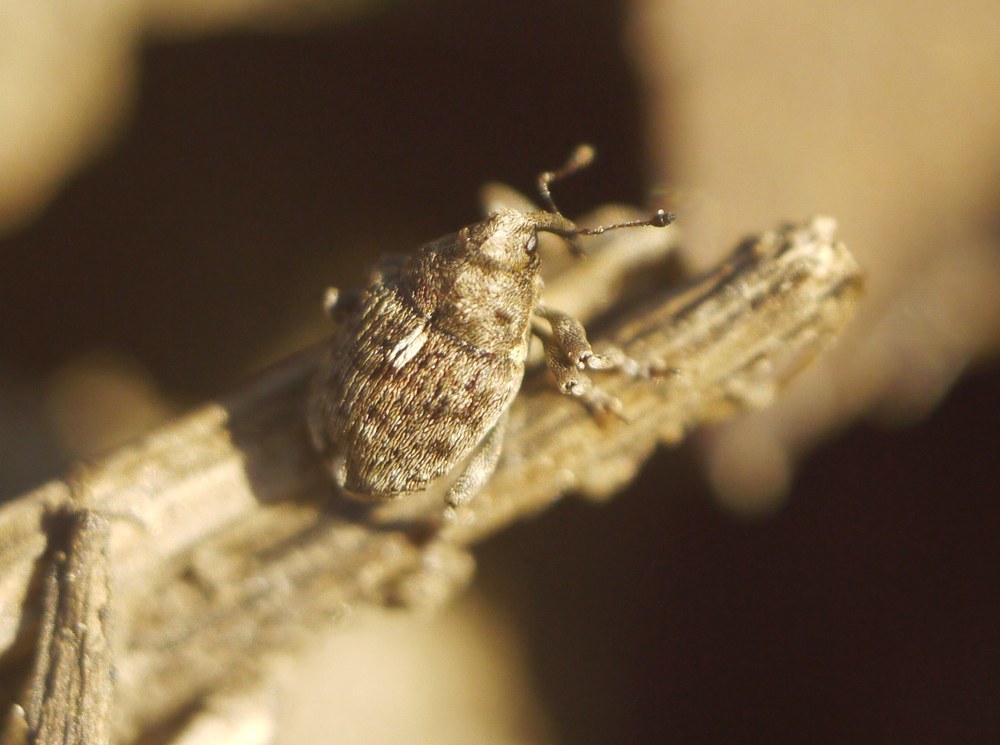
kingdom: Animalia
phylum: Arthropoda
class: Insecta
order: Coleoptera
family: Curculionidae
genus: Ethelcus
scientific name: Ethelcus denticulatus
